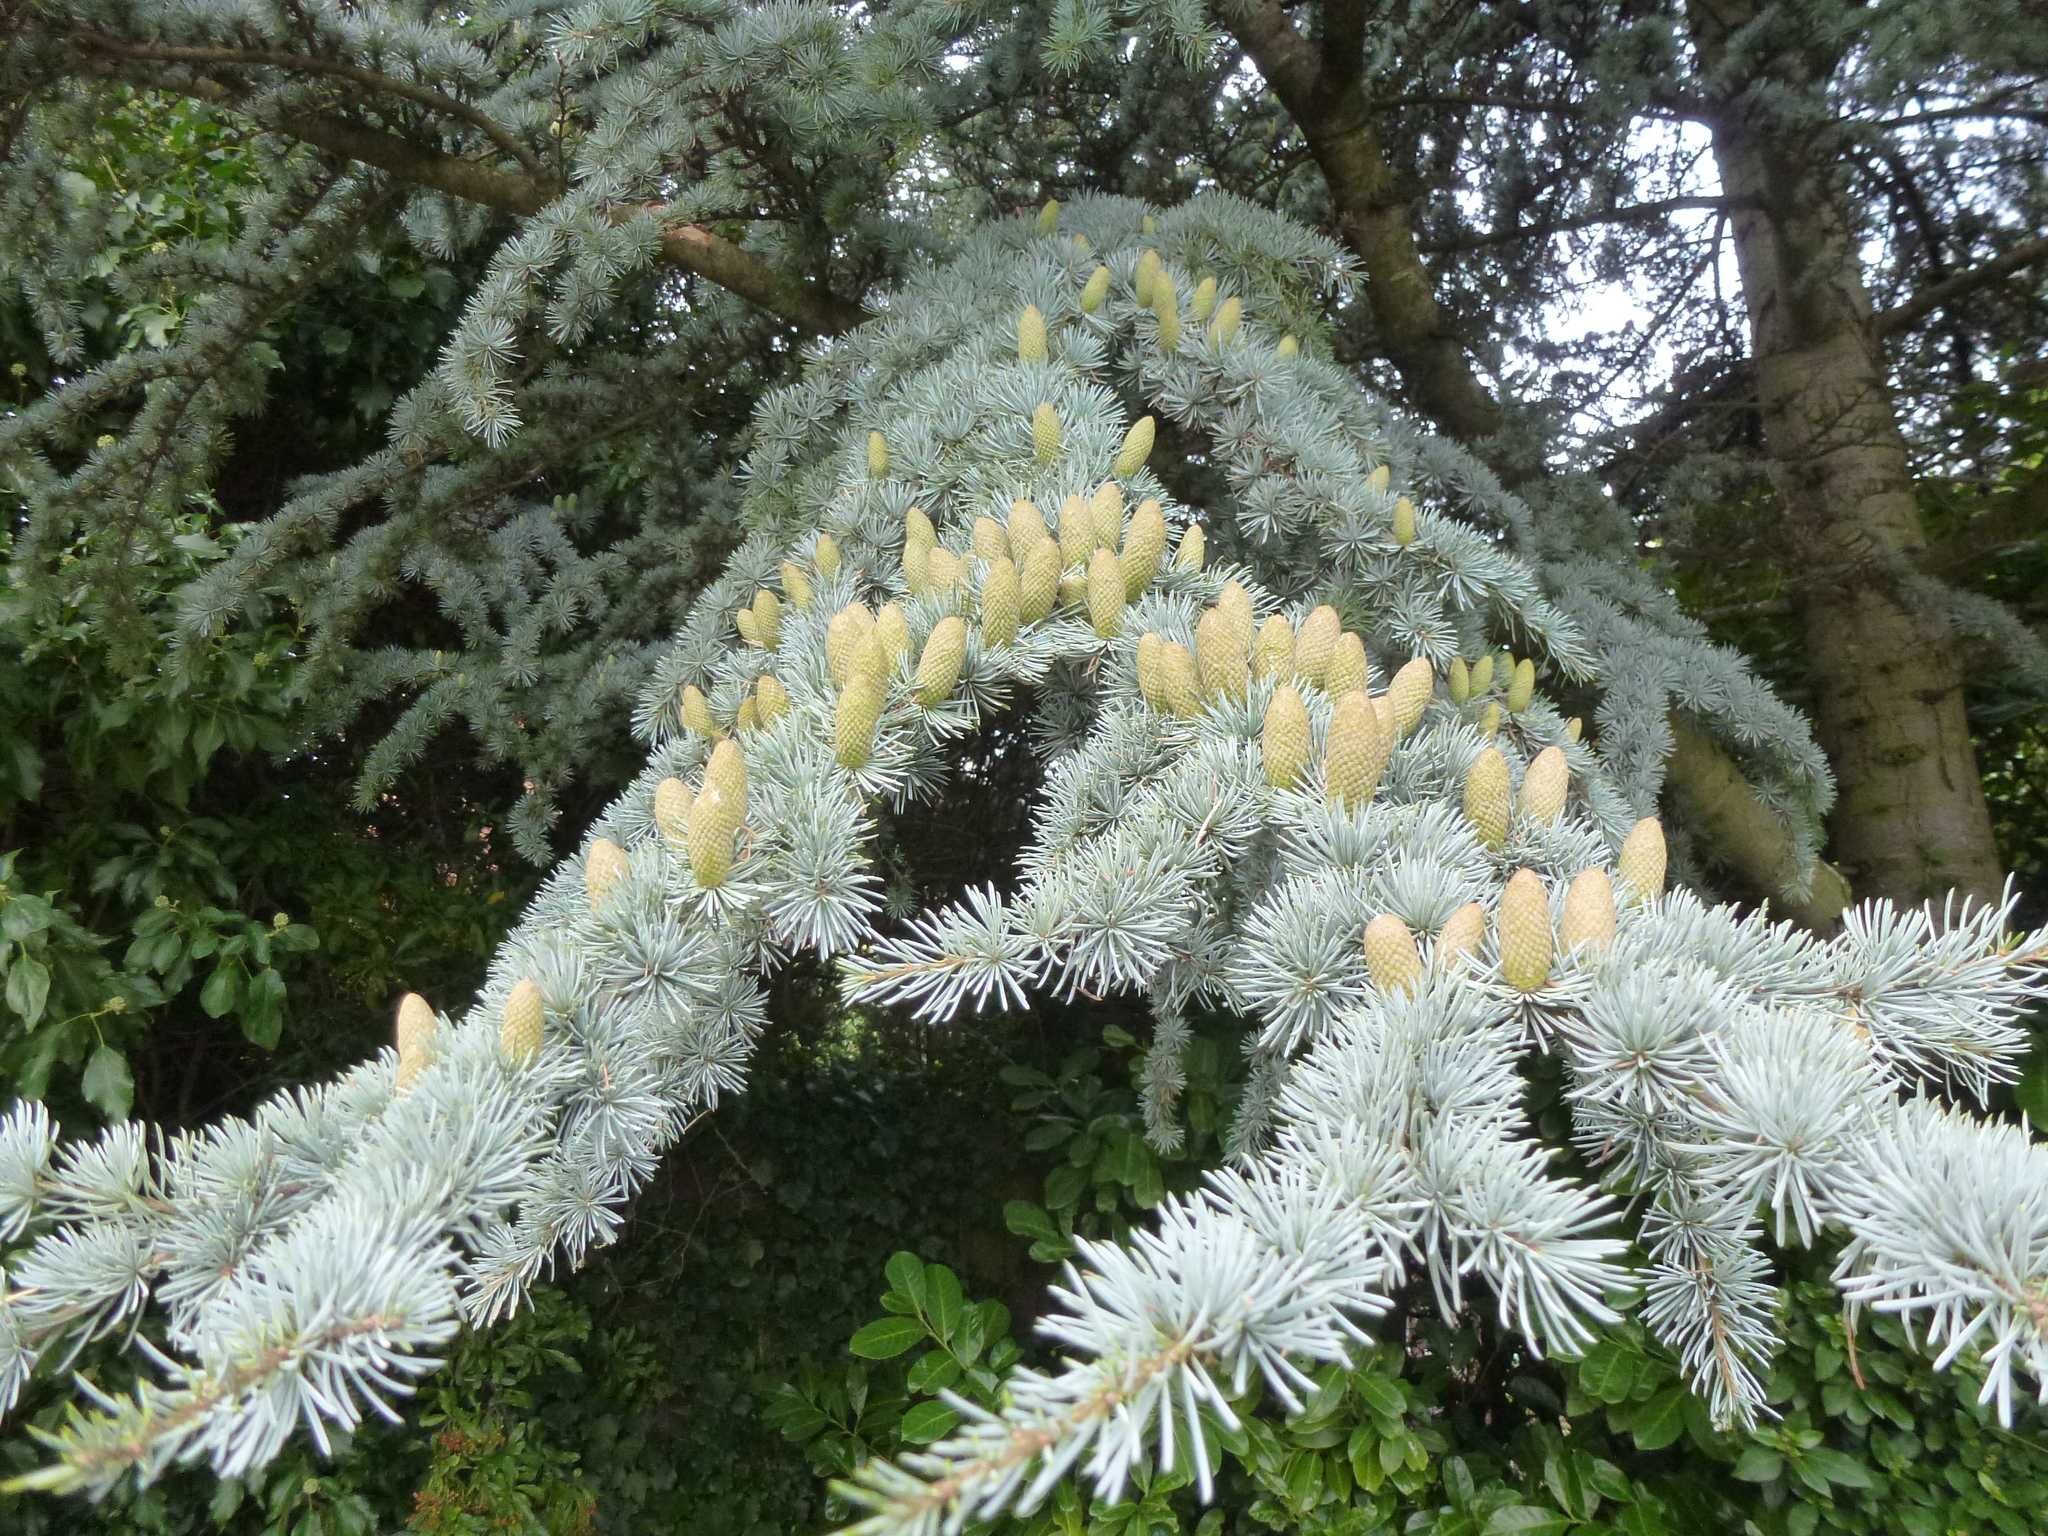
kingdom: Plantae
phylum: Tracheophyta
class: Pinopsida
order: Pinales
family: Pinaceae
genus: Cedrus
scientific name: Cedrus atlantica
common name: Atlas cedar
